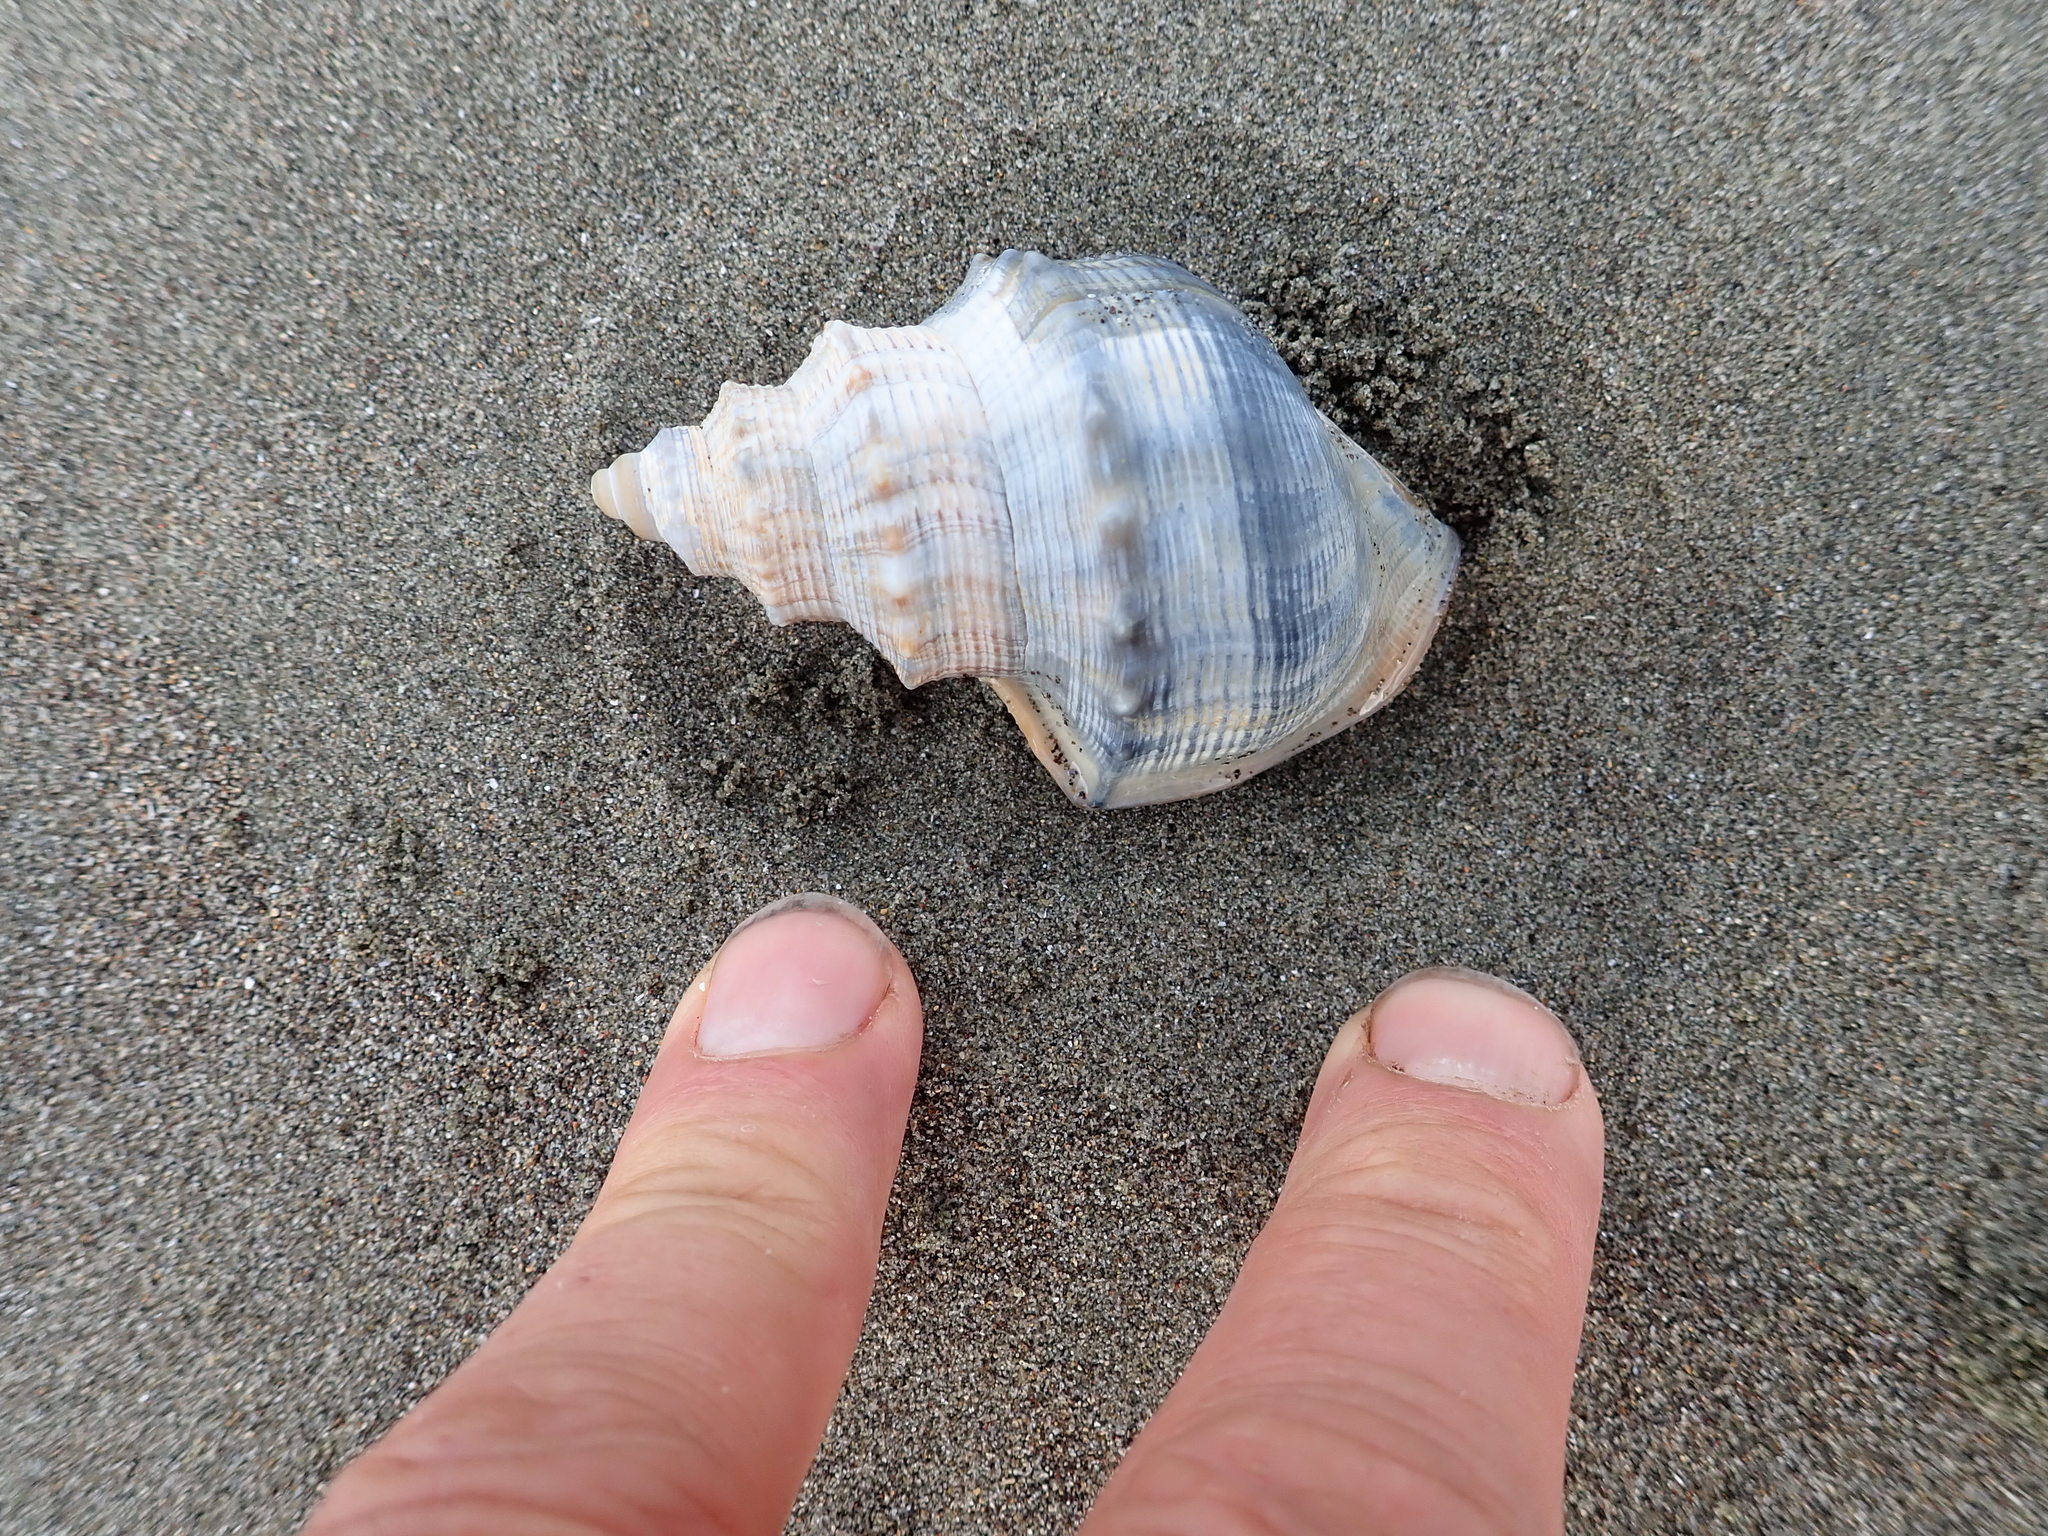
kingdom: Animalia
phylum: Mollusca
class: Gastropoda
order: Littorinimorpha
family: Struthiolariidae
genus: Struthiolaria
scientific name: Struthiolaria papulosa
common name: Large ostrich foot
